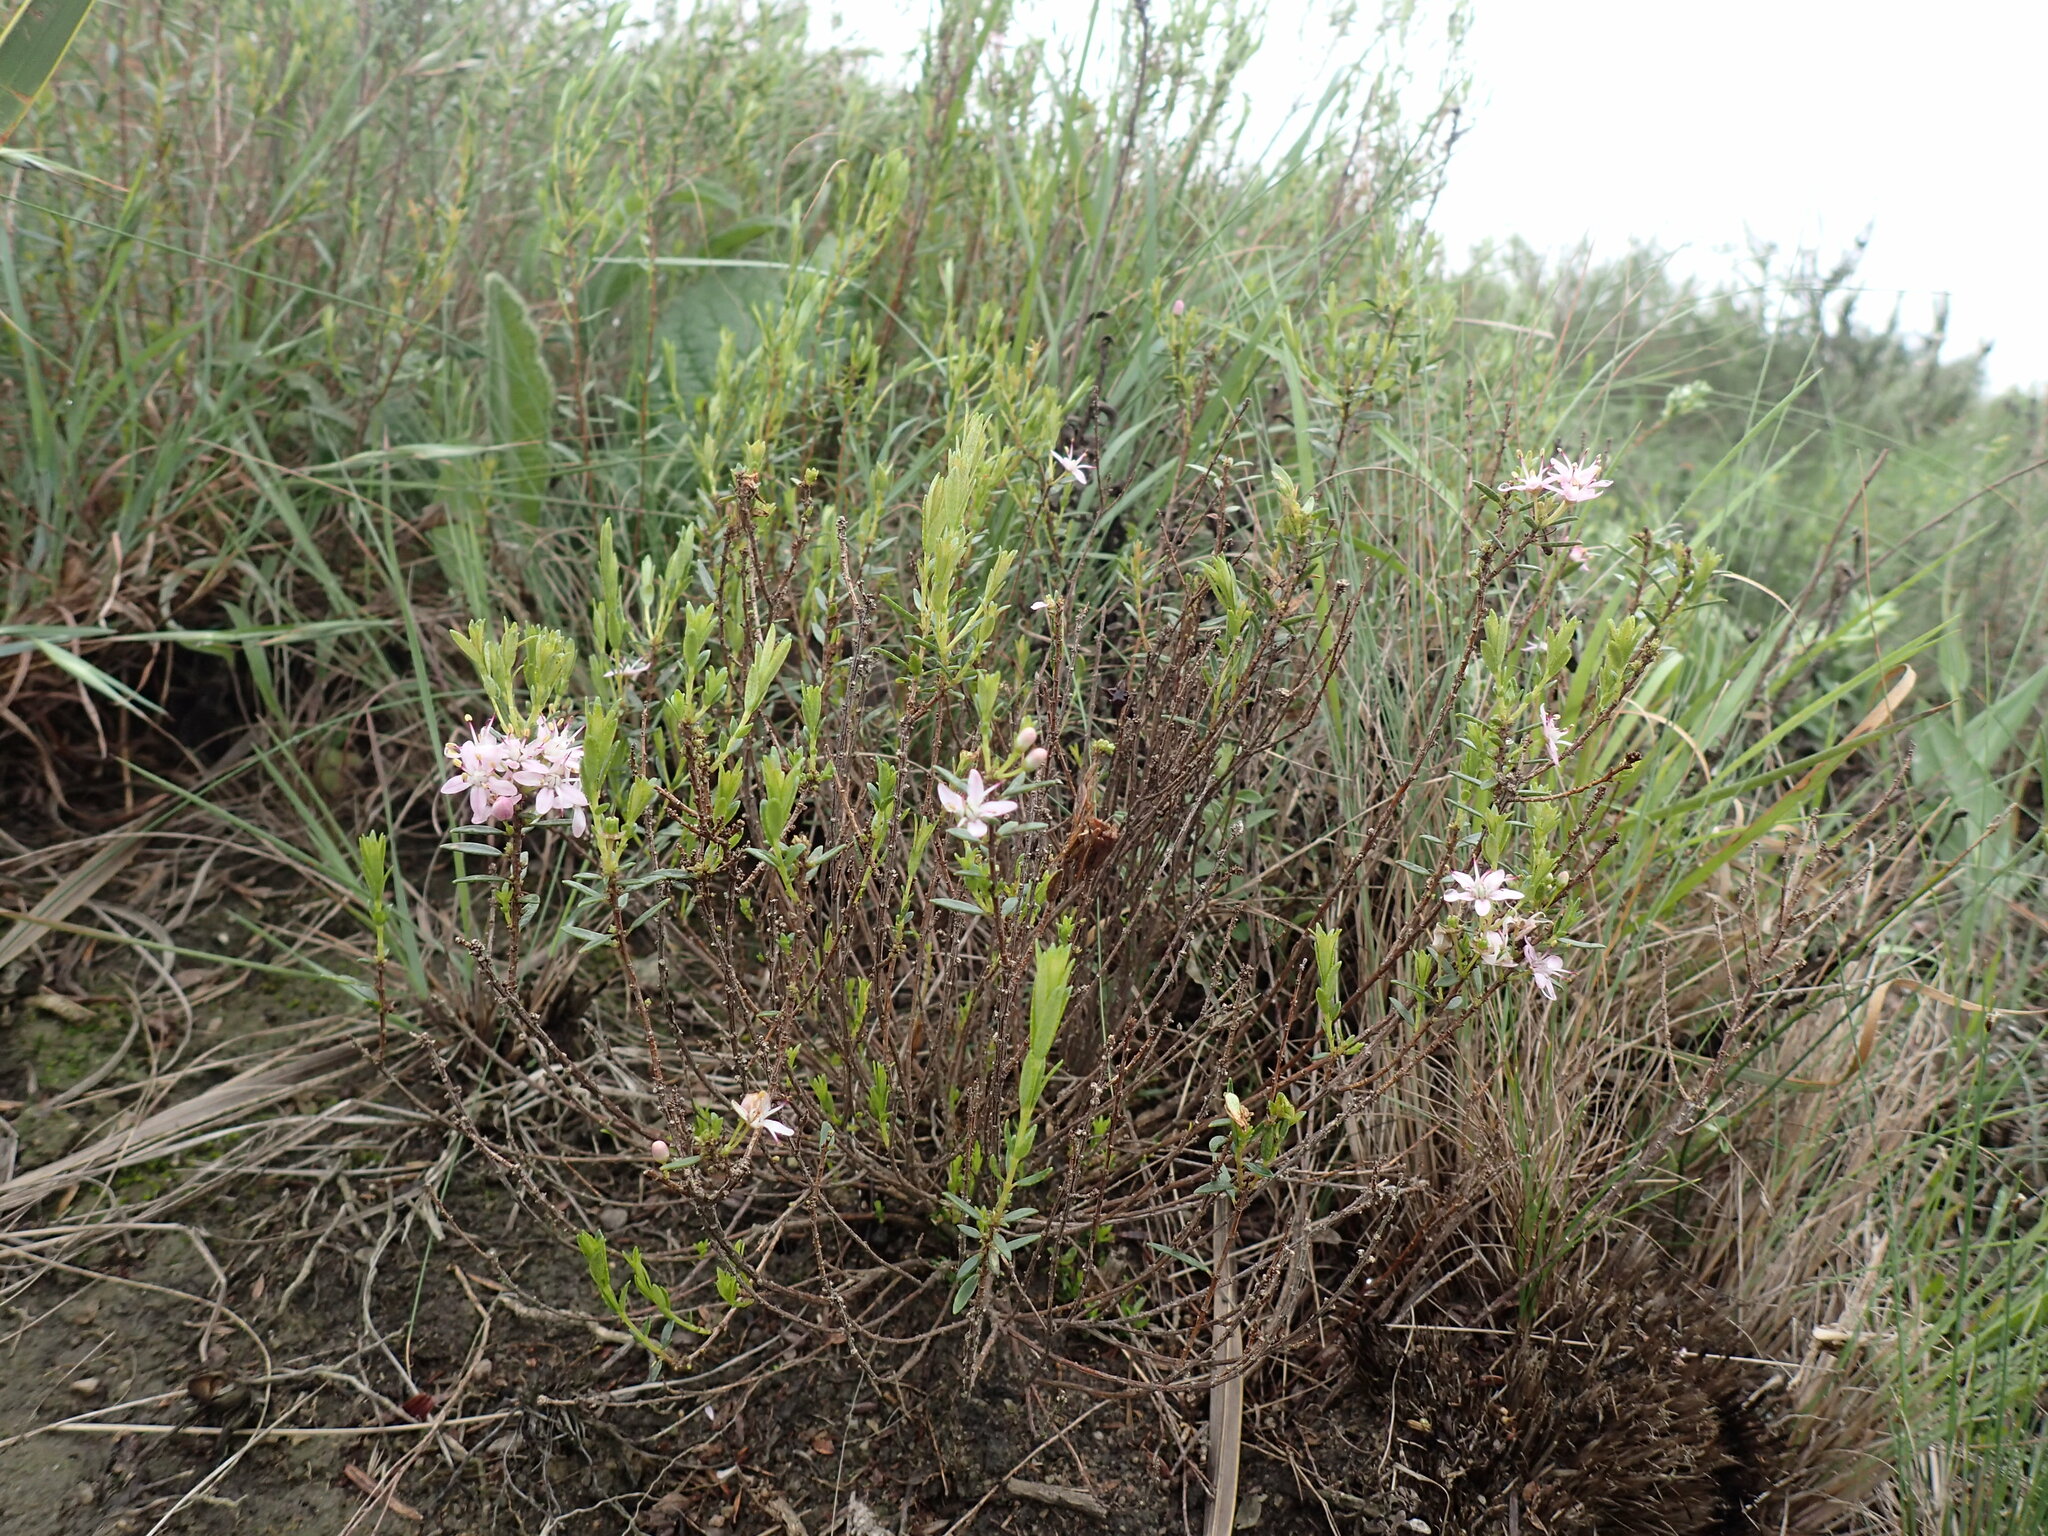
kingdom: Plantae
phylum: Tracheophyta
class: Magnoliopsida
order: Sapindales
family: Rutaceae
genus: Agathosma
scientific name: Agathosma ovata
